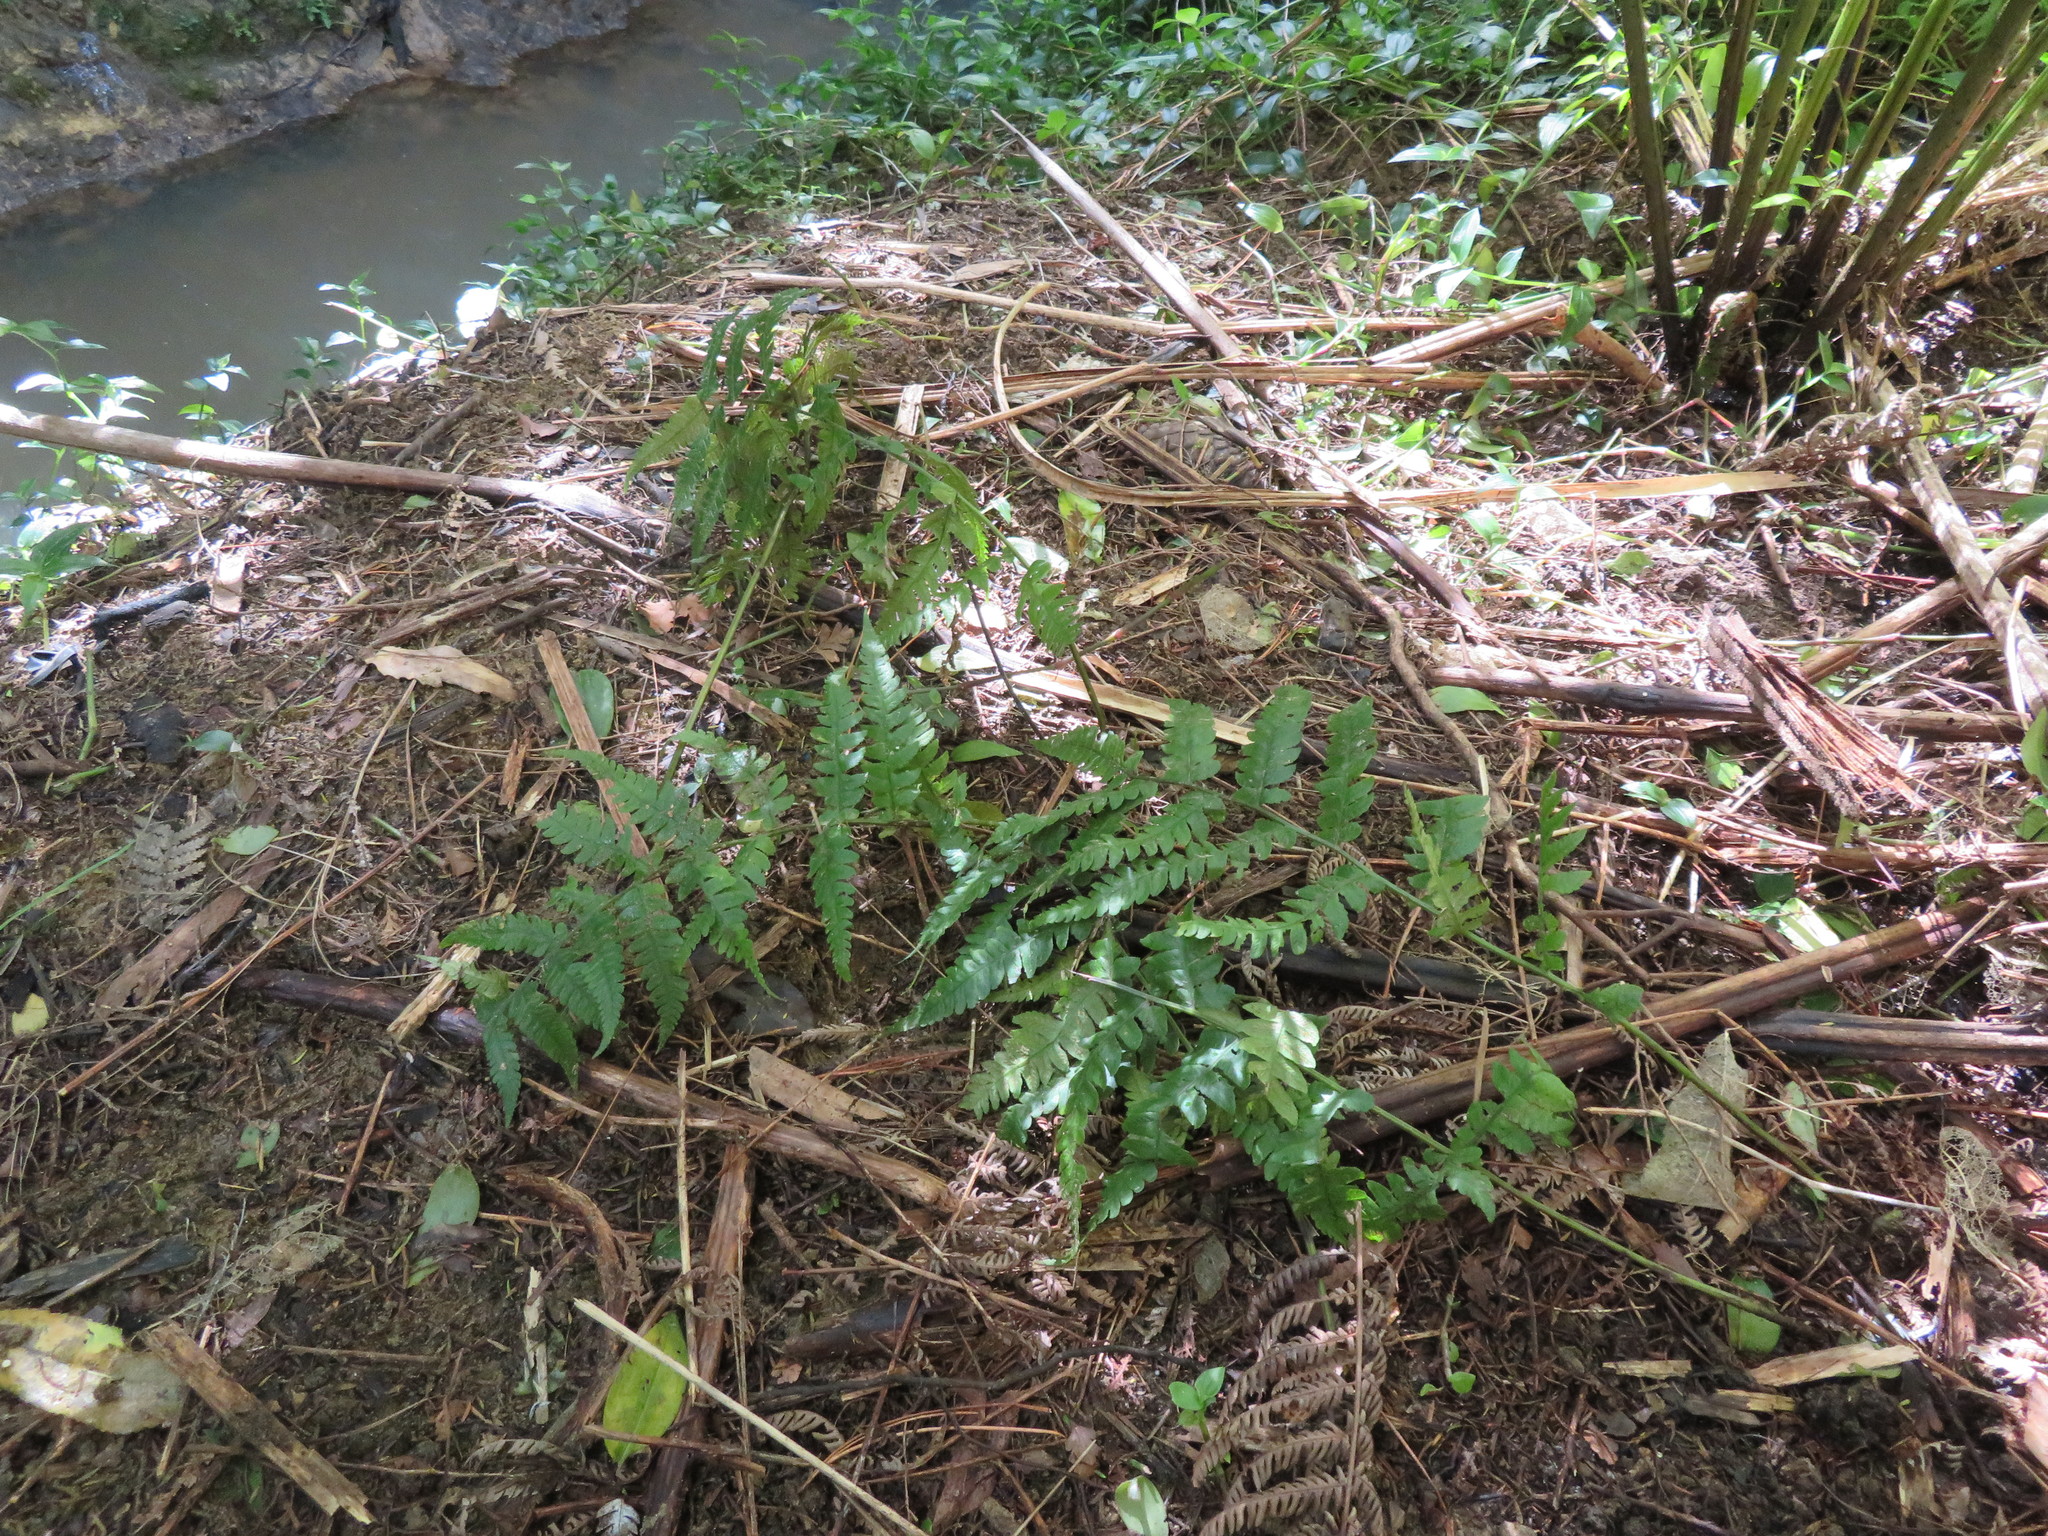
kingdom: Plantae
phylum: Tracheophyta
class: Polypodiopsida
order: Polypodiales
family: Athyriaceae
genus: Diplazium
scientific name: Diplazium congruum
